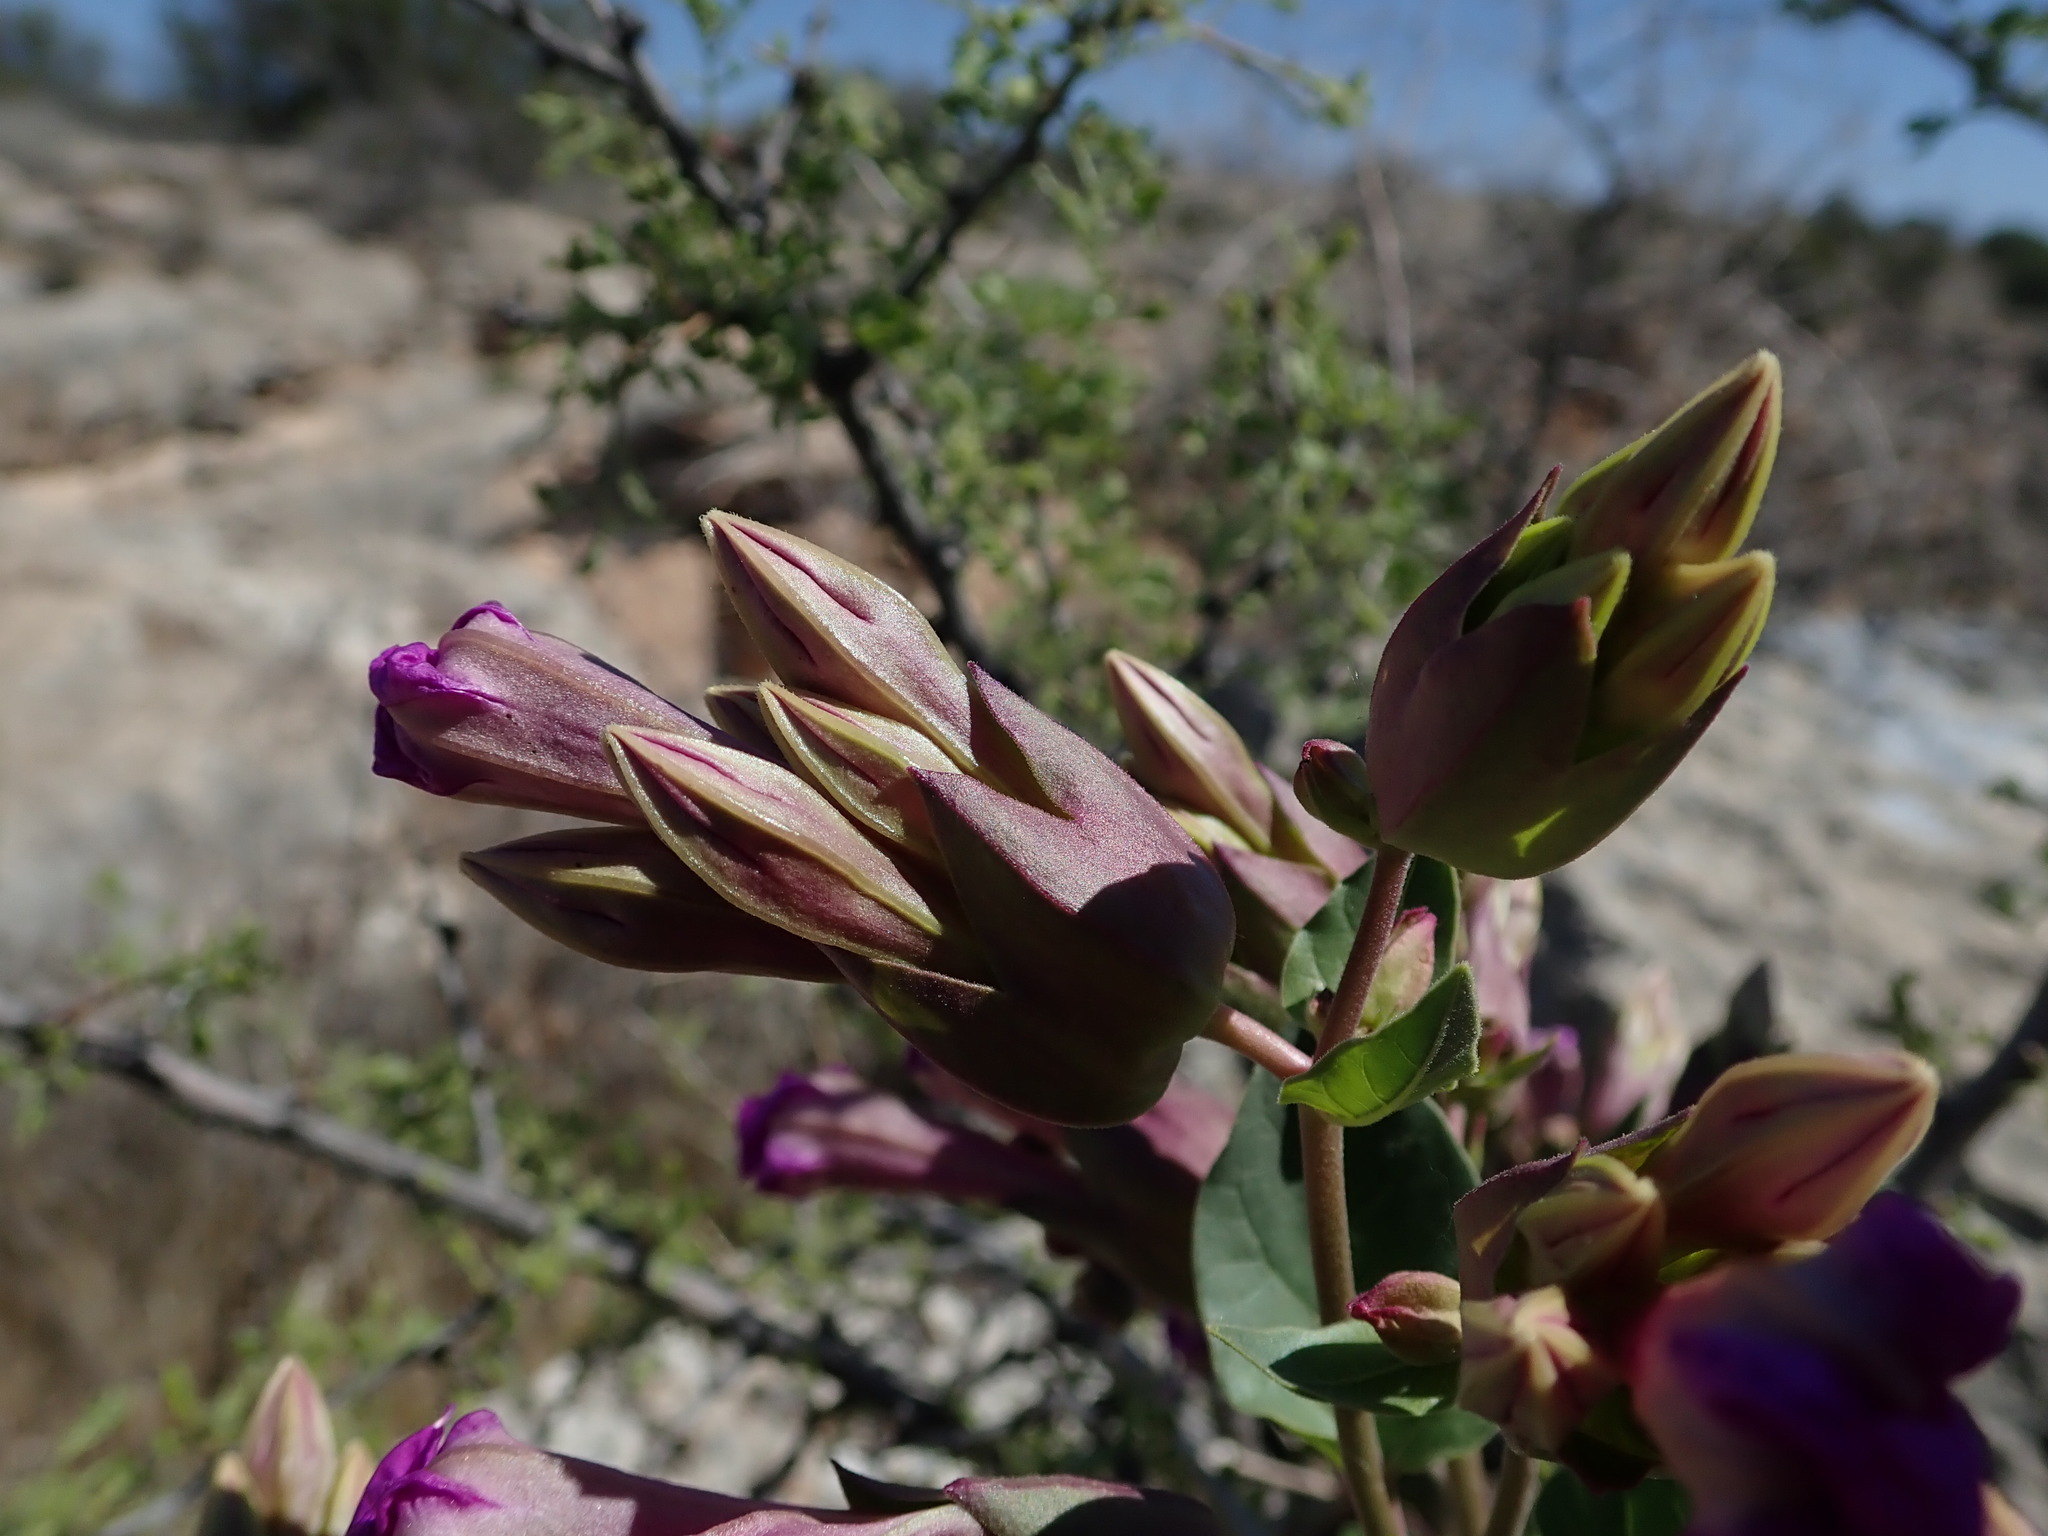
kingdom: Plantae
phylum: Tracheophyta
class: Magnoliopsida
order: Caryophyllales
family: Nyctaginaceae
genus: Mirabilis
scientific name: Mirabilis multiflora
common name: Froebel's four-o'clock
